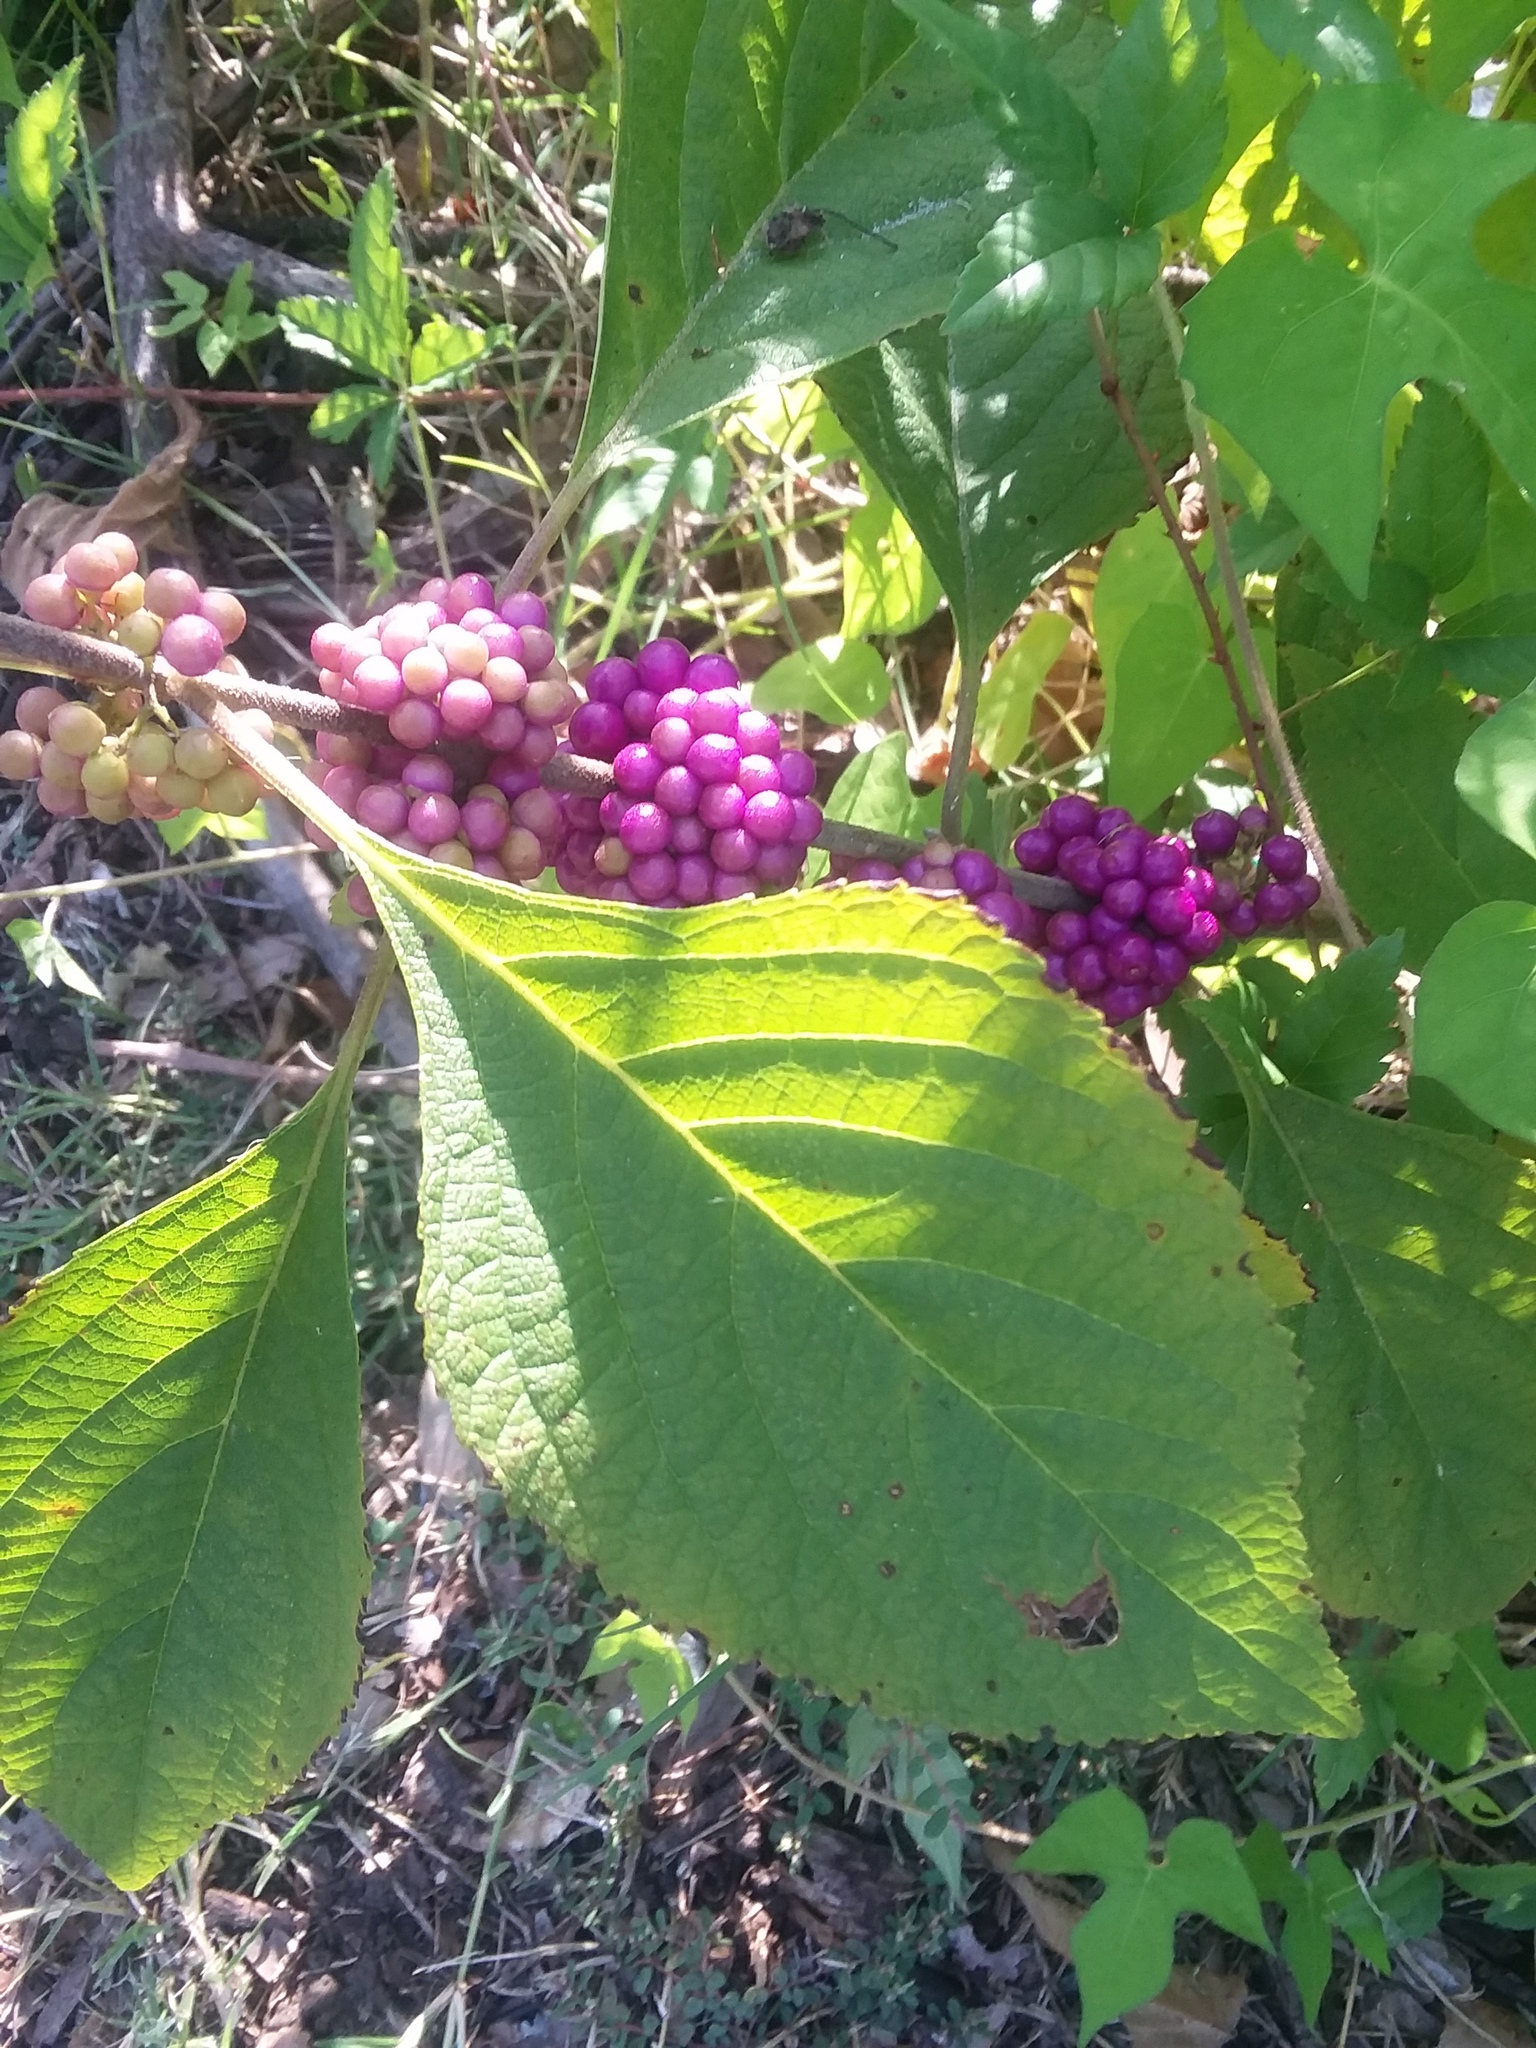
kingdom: Plantae
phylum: Tracheophyta
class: Magnoliopsida
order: Lamiales
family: Lamiaceae
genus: Callicarpa
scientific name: Callicarpa americana
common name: American beautyberry
